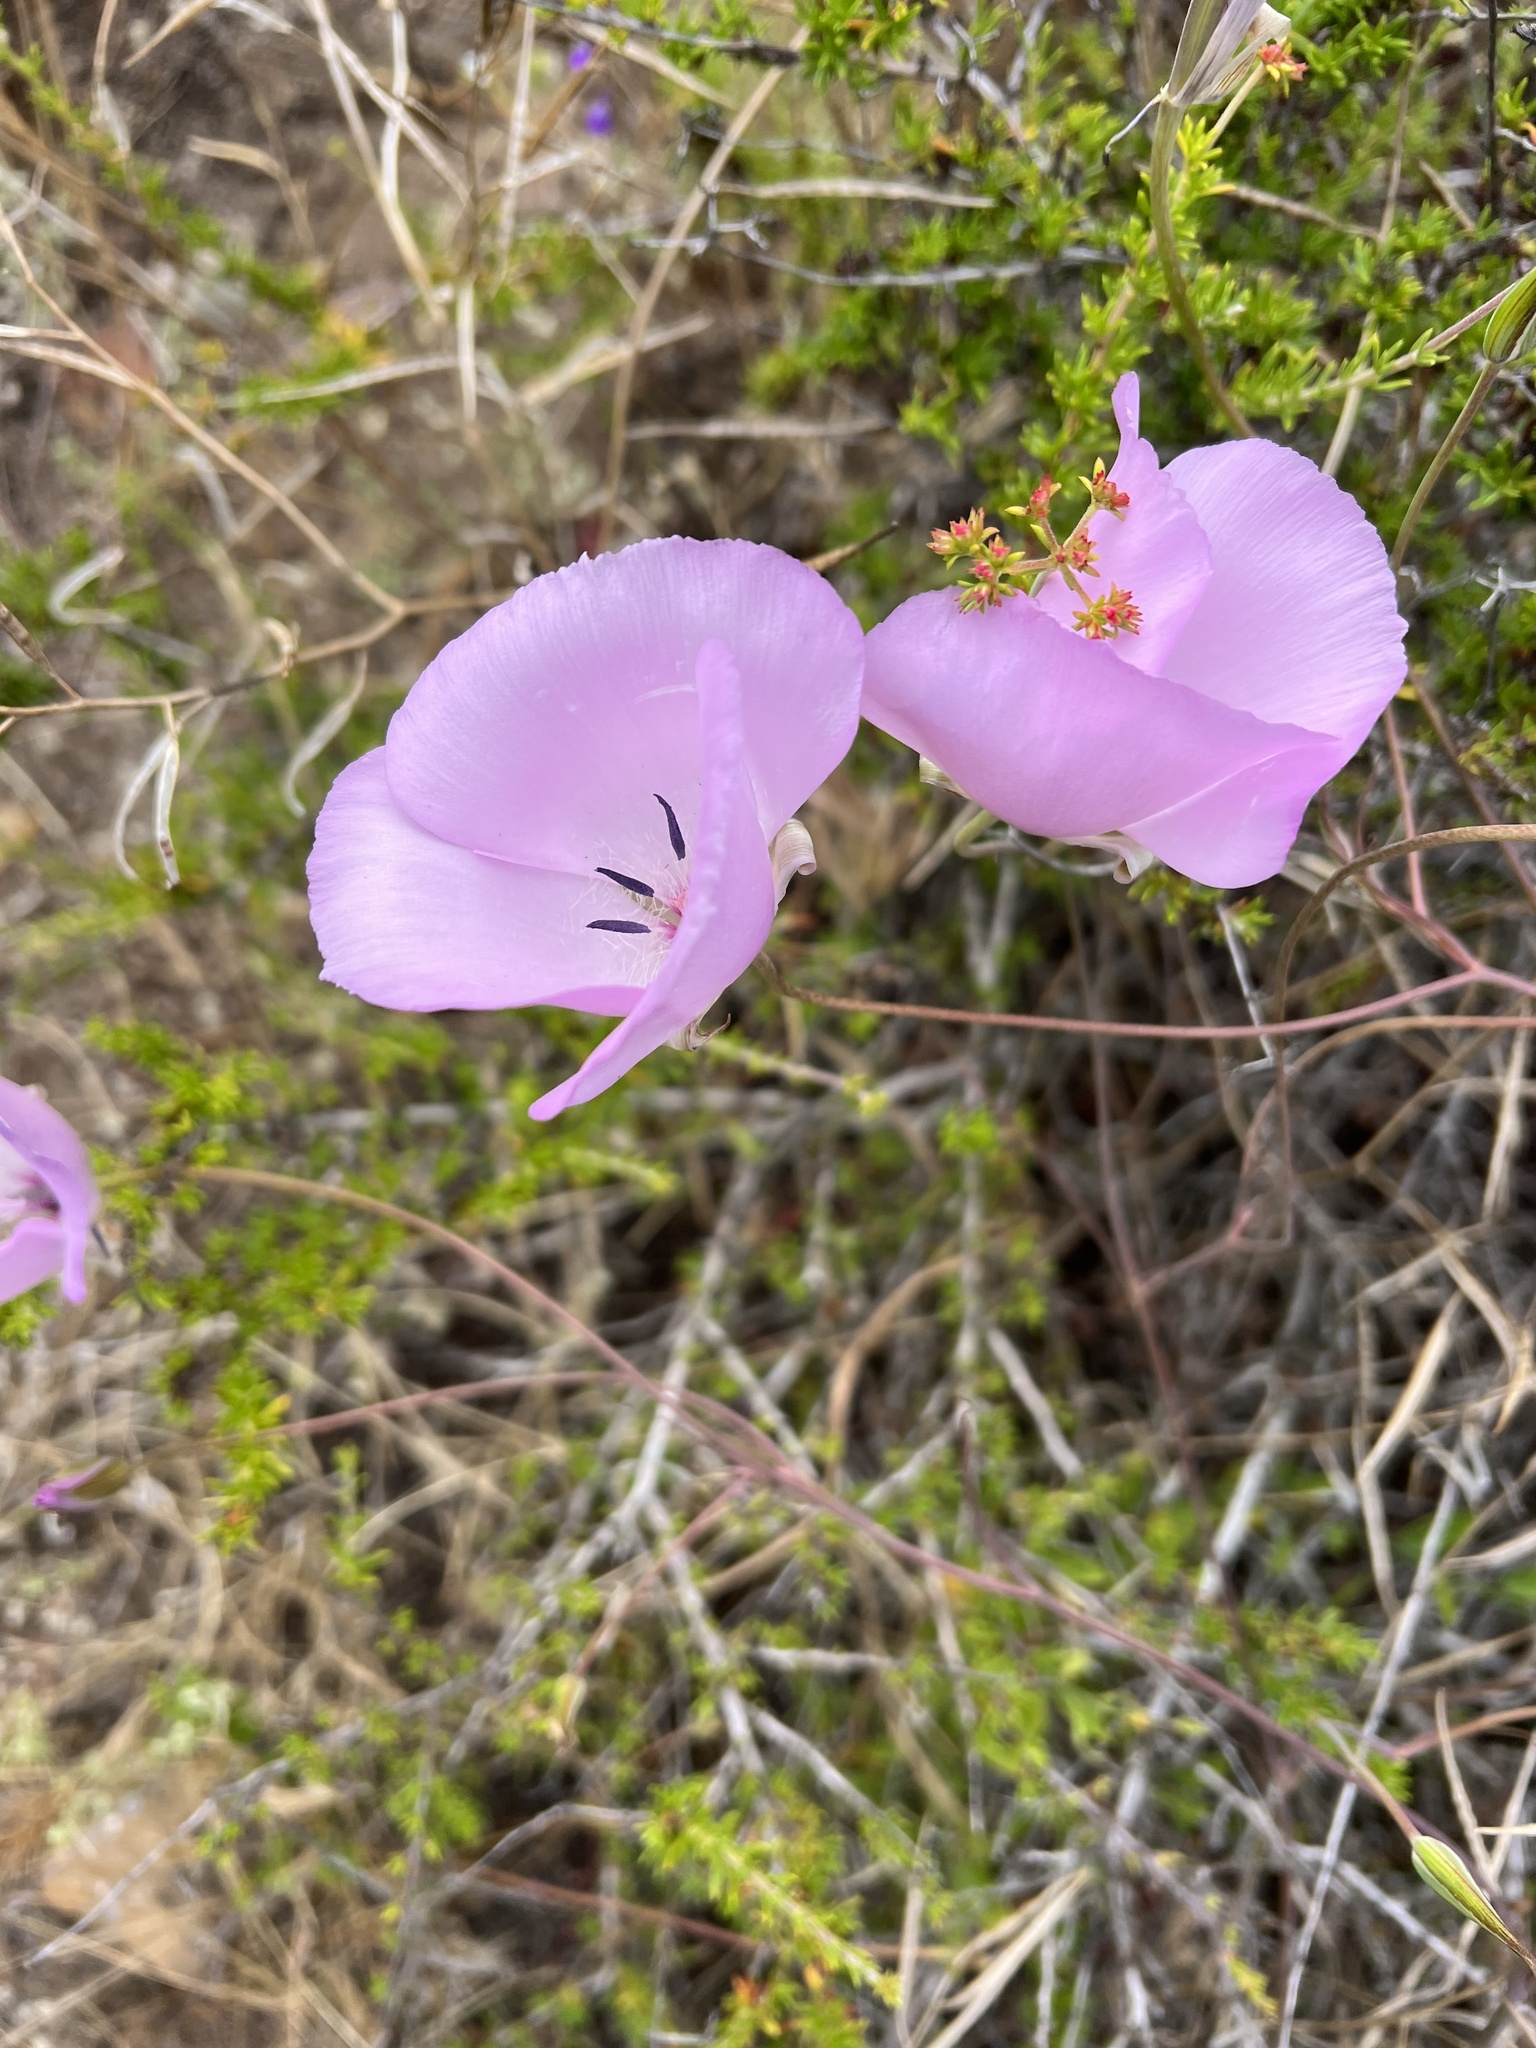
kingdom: Plantae
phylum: Tracheophyta
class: Liliopsida
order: Liliales
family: Liliaceae
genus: Calochortus
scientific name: Calochortus splendens
